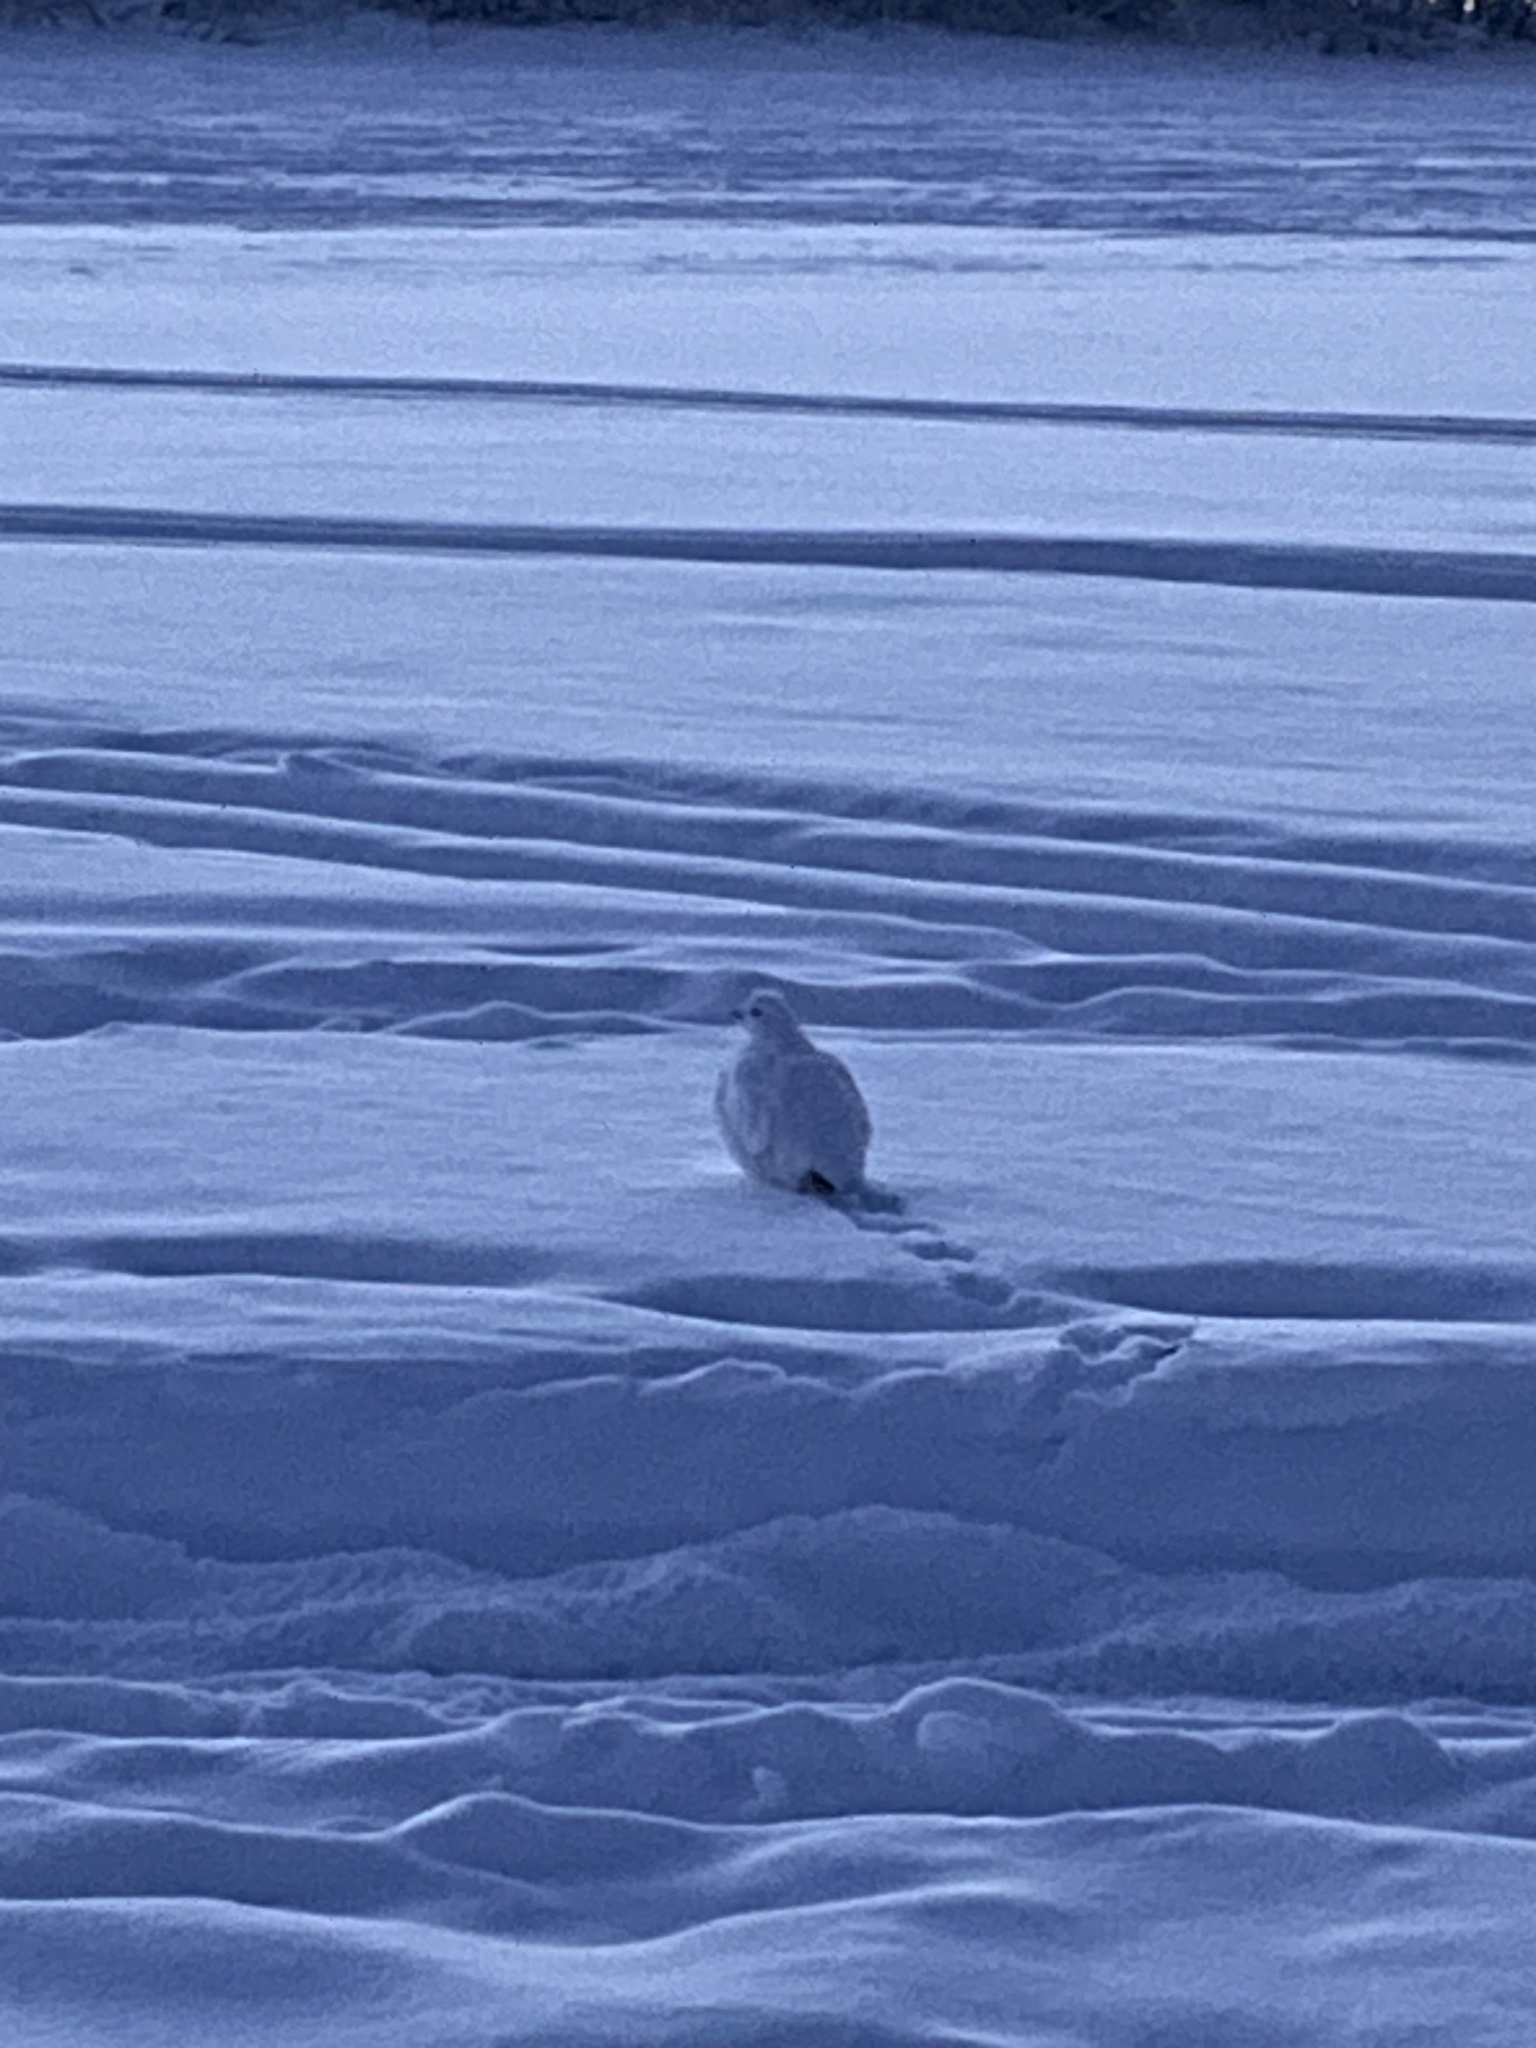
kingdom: Animalia
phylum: Chordata
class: Aves
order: Galliformes
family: Phasianidae
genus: Lagopus
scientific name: Lagopus lagopus
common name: Willow ptarmigan
